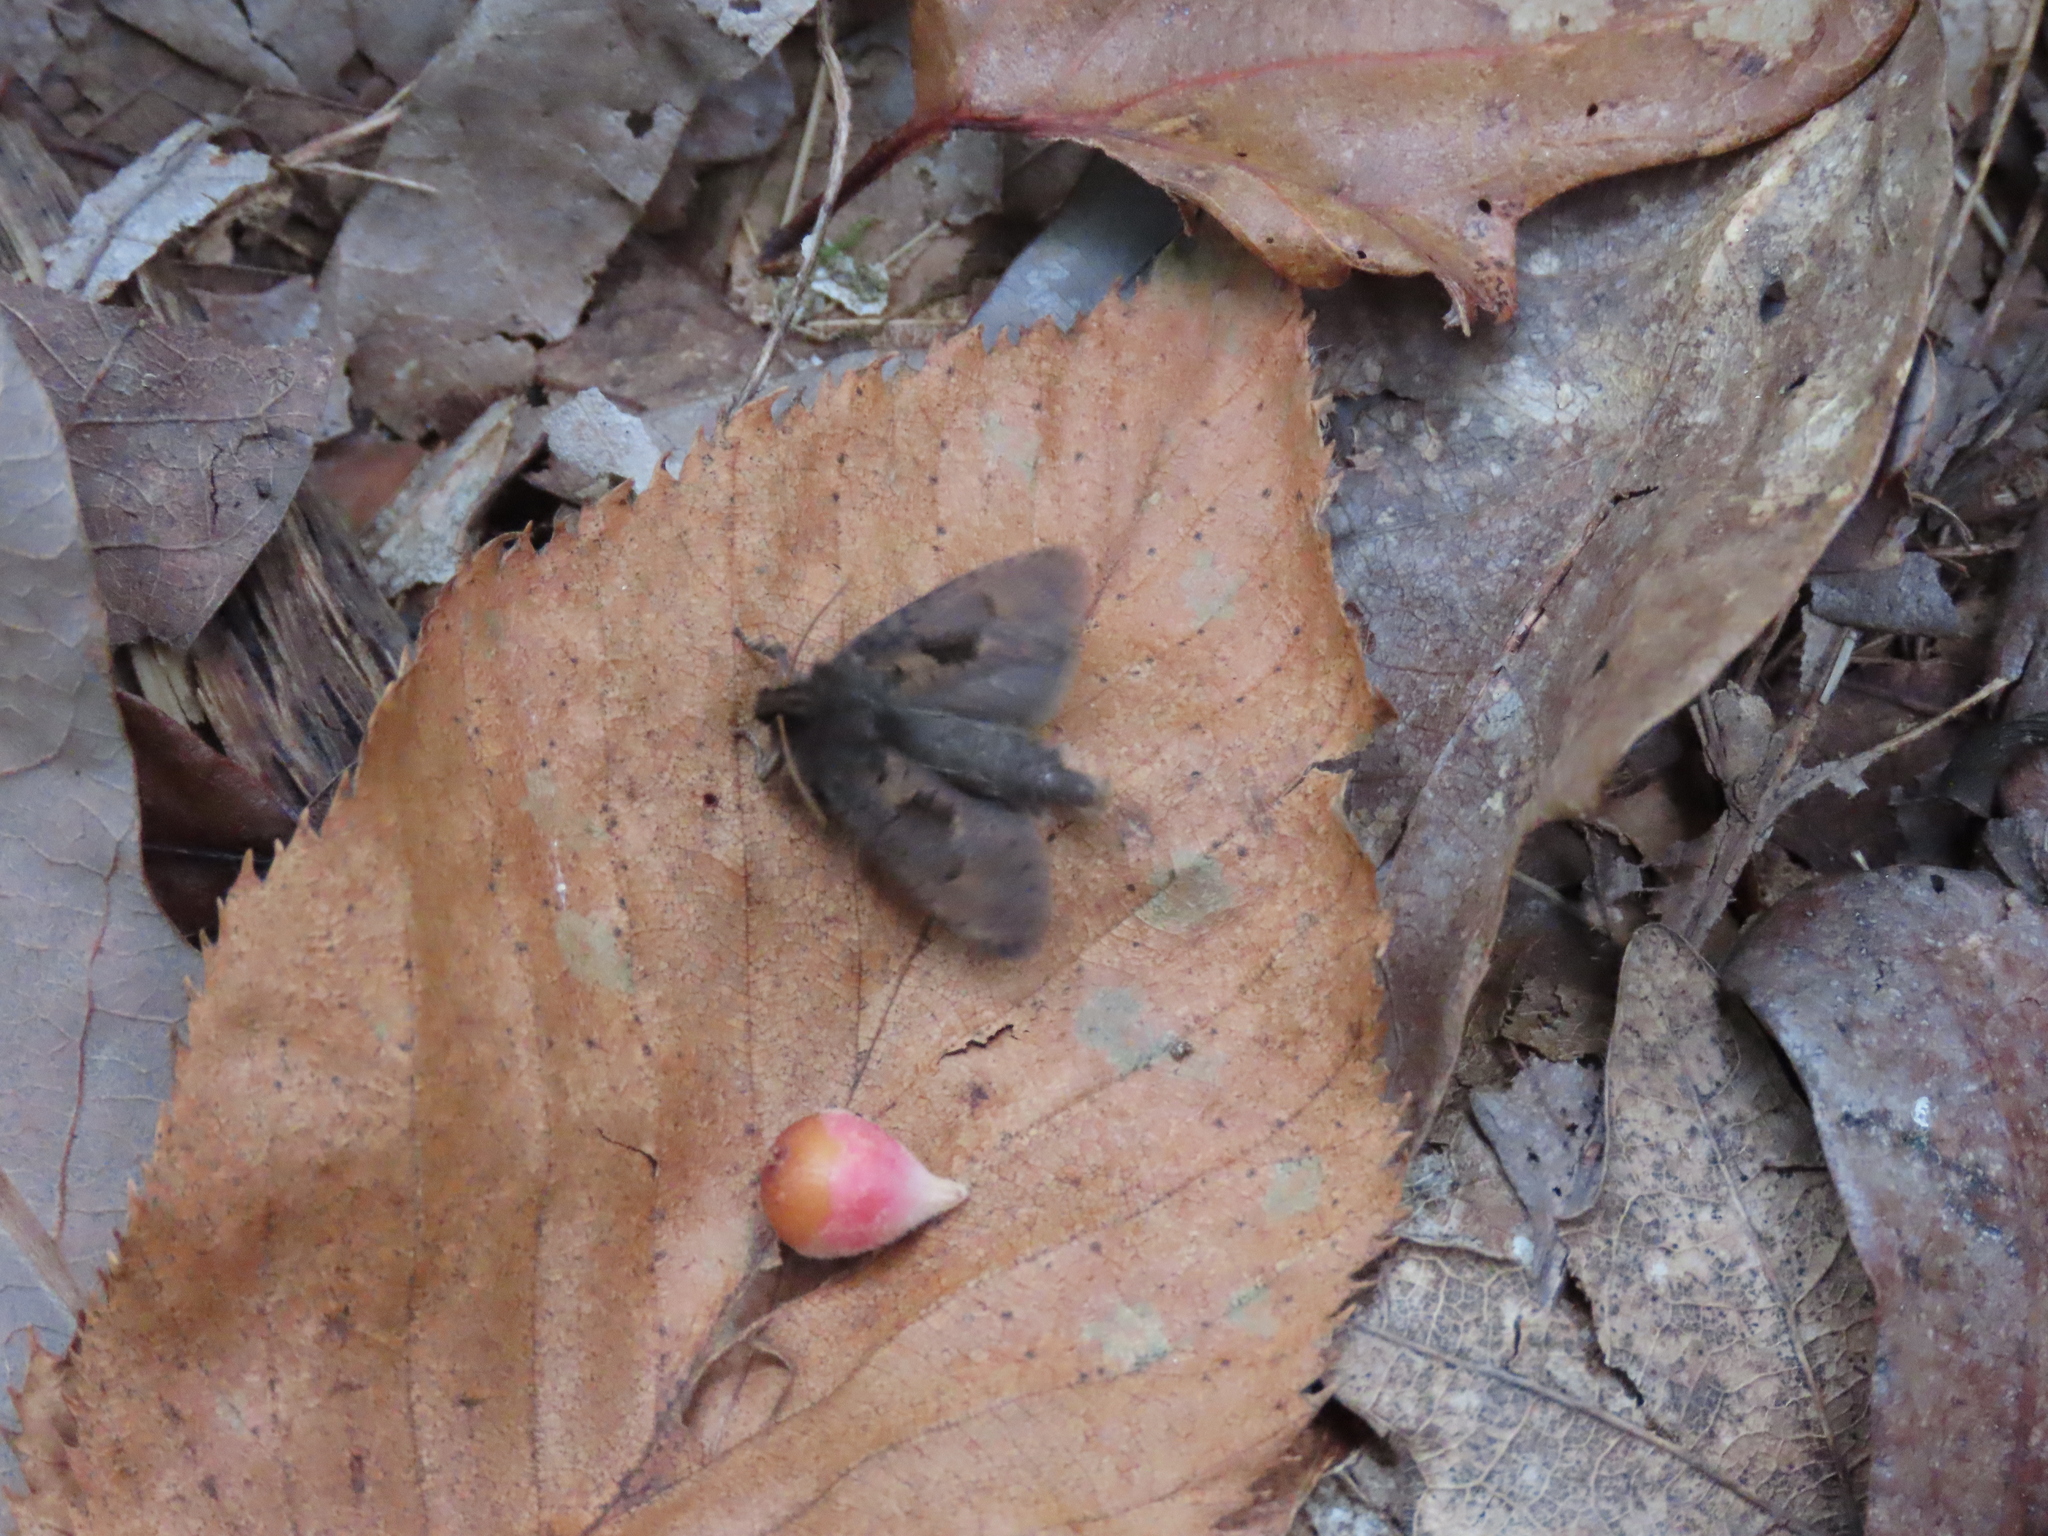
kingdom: Animalia
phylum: Arthropoda
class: Insecta
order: Hymenoptera
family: Cynipidae
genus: Andricus
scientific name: Andricus
